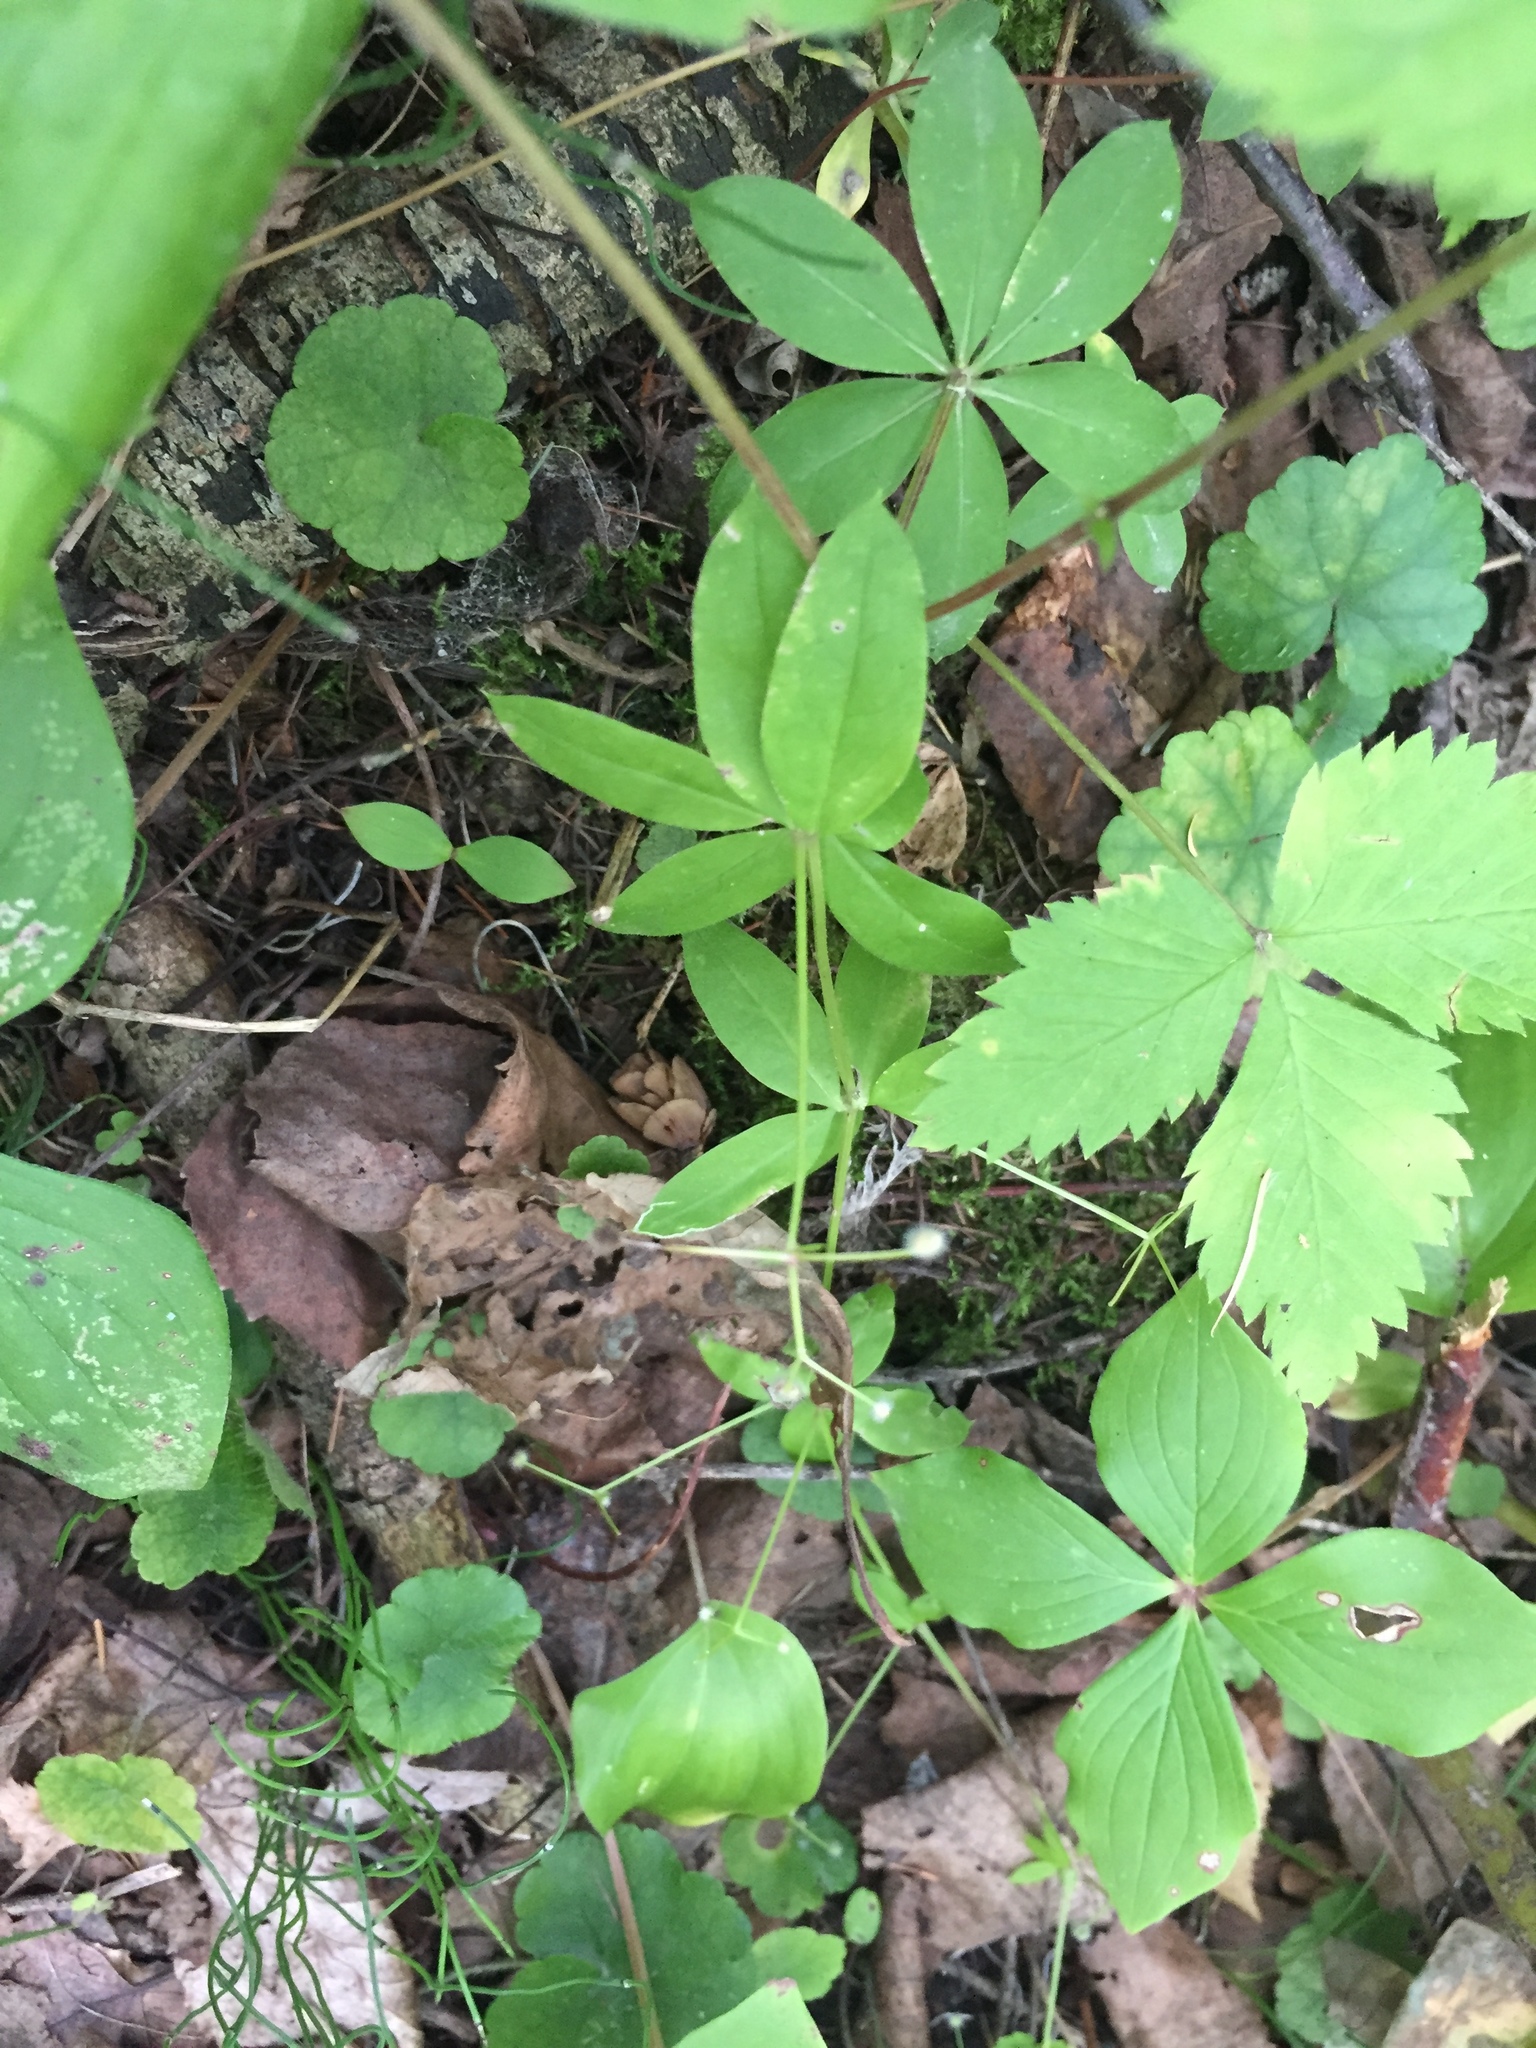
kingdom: Plantae
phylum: Tracheophyta
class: Magnoliopsida
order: Gentianales
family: Rubiaceae
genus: Galium
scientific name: Galium triflorum
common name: Fragrant bedstraw
